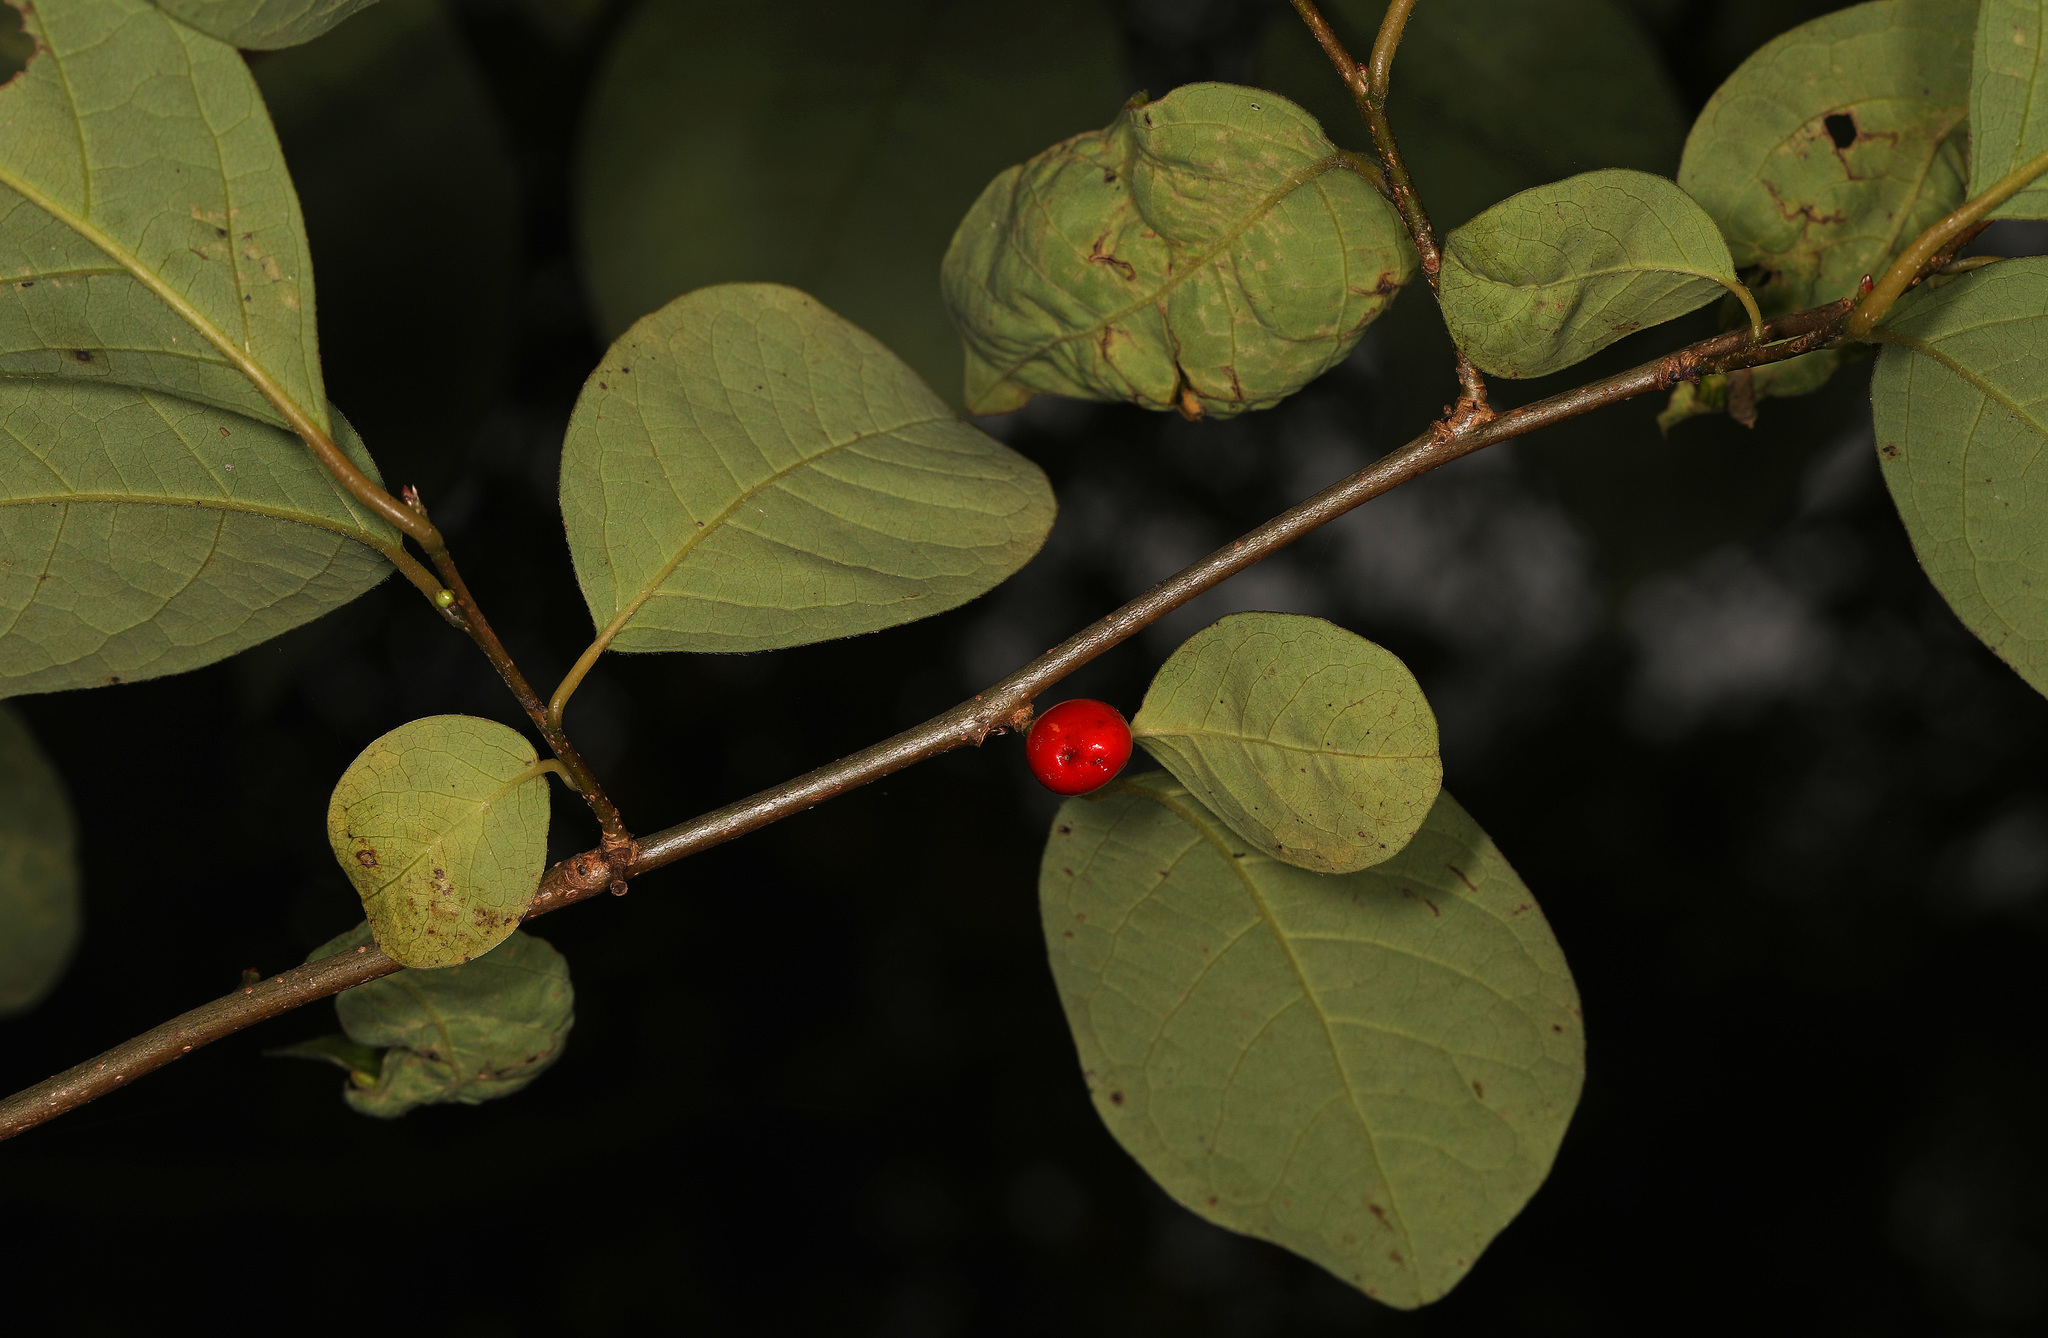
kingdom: Plantae
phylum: Tracheophyta
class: Magnoliopsida
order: Laurales
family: Lauraceae
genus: Lindera
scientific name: Lindera benzoin
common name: Spicebush
